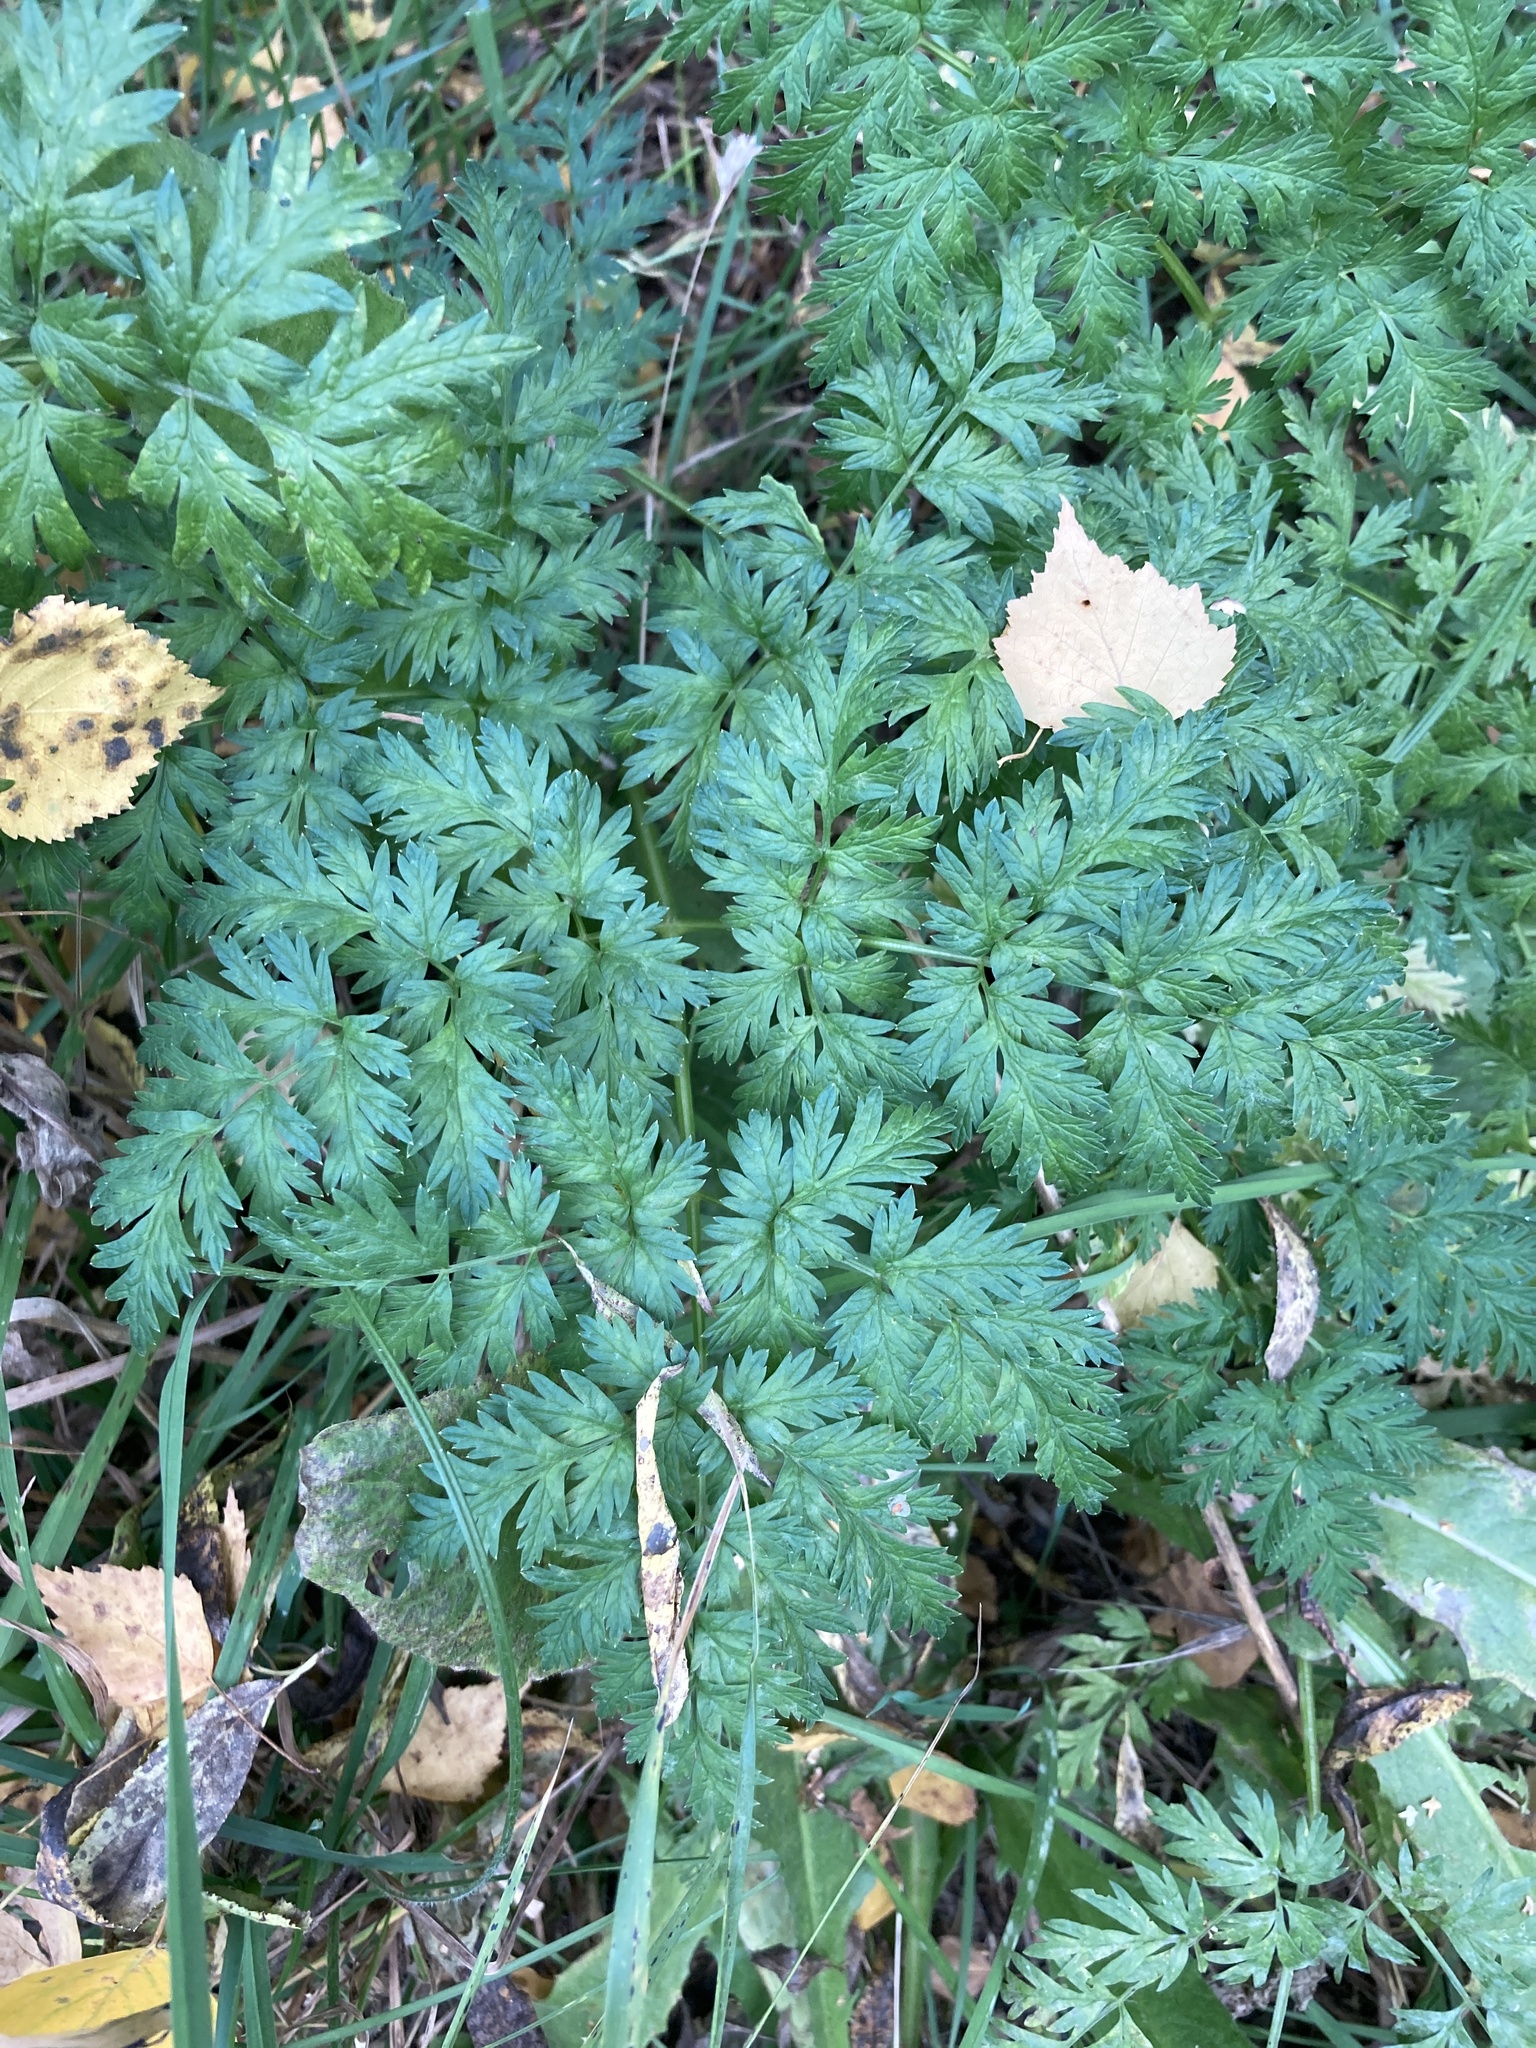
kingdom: Plantae
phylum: Tracheophyta
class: Magnoliopsida
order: Apiales
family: Apiaceae
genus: Anthriscus
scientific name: Anthriscus sylvestris
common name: Cow parsley
